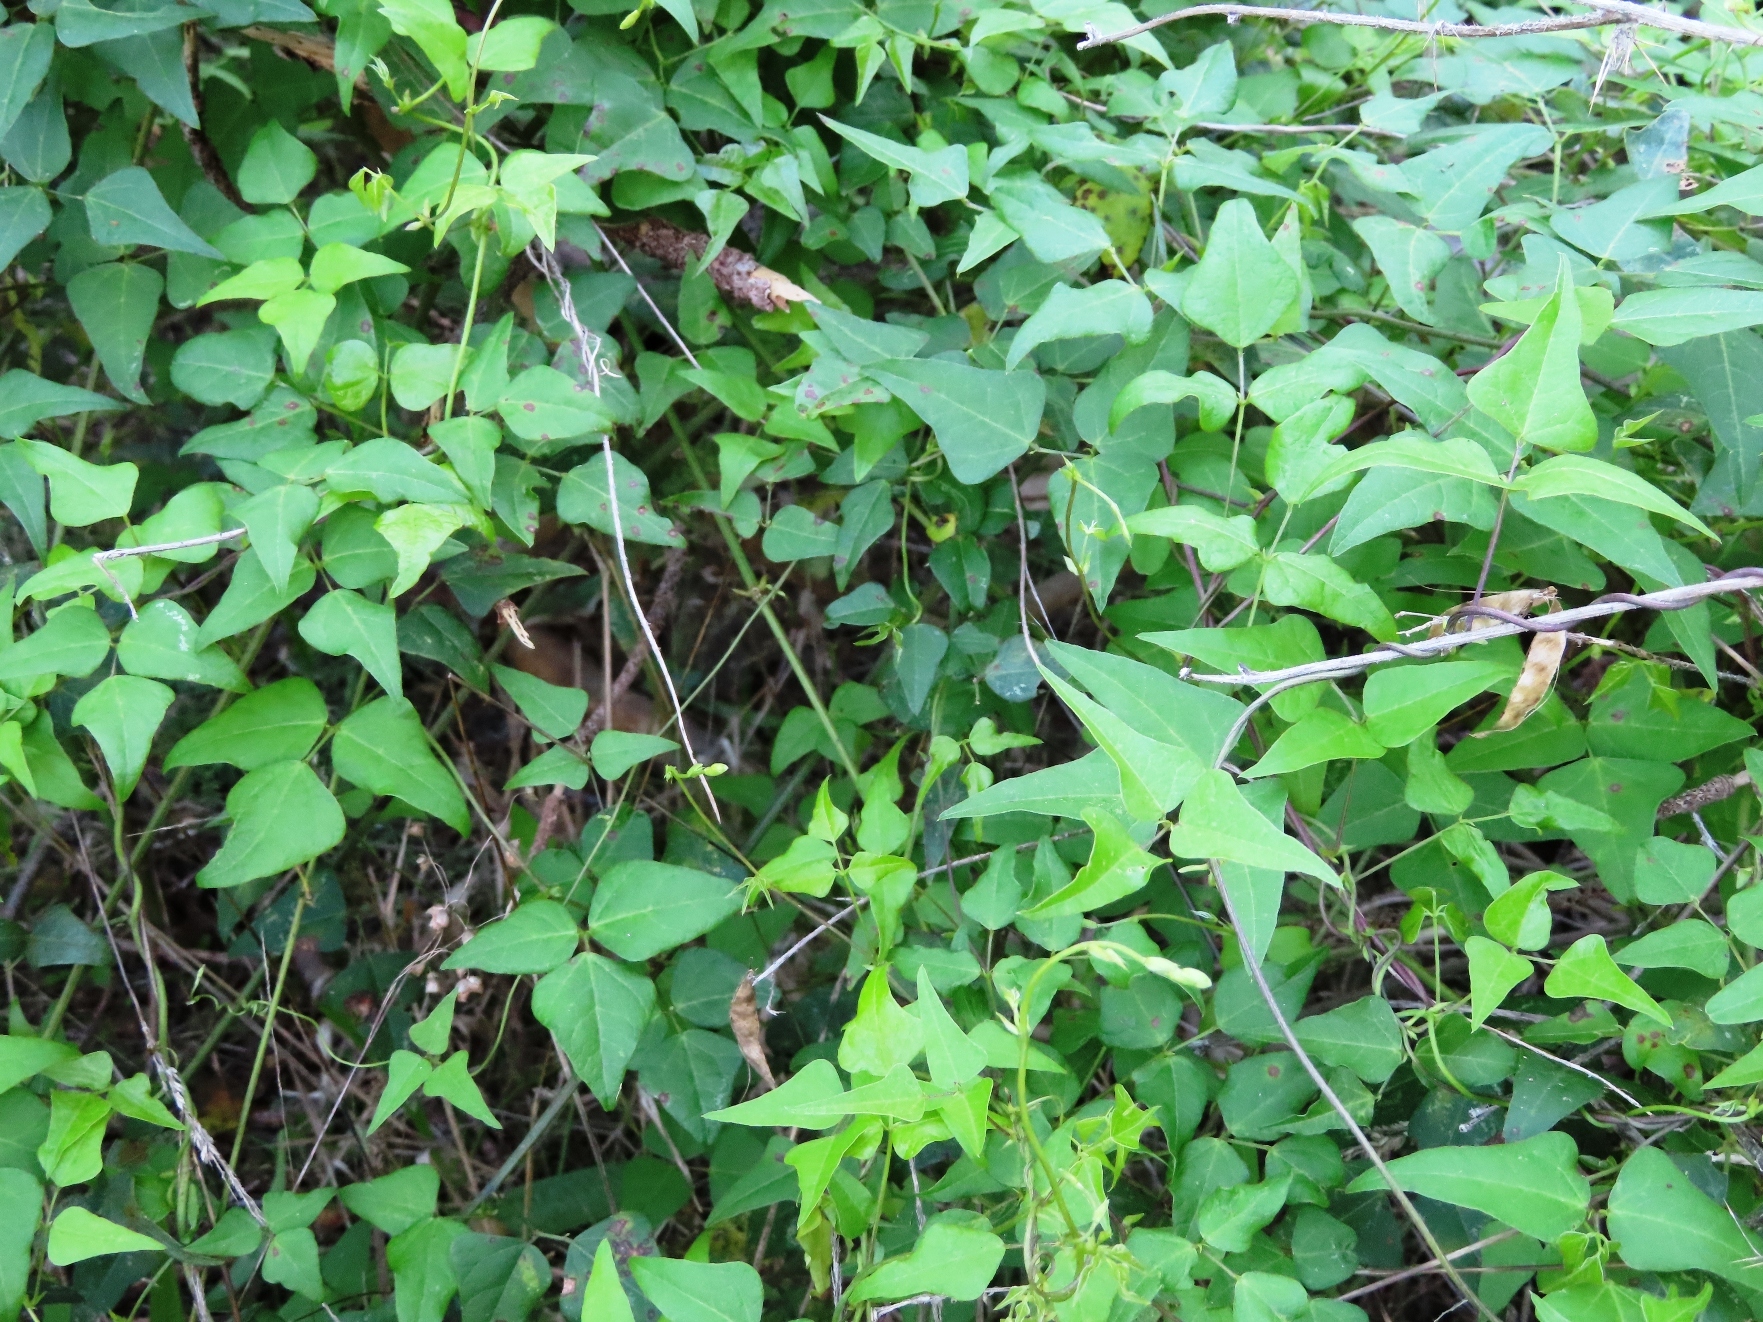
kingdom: Plantae
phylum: Tracheophyta
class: Magnoliopsida
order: Fabales
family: Fabaceae
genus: Dipogon
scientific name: Dipogon lignosus
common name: Okie bean
